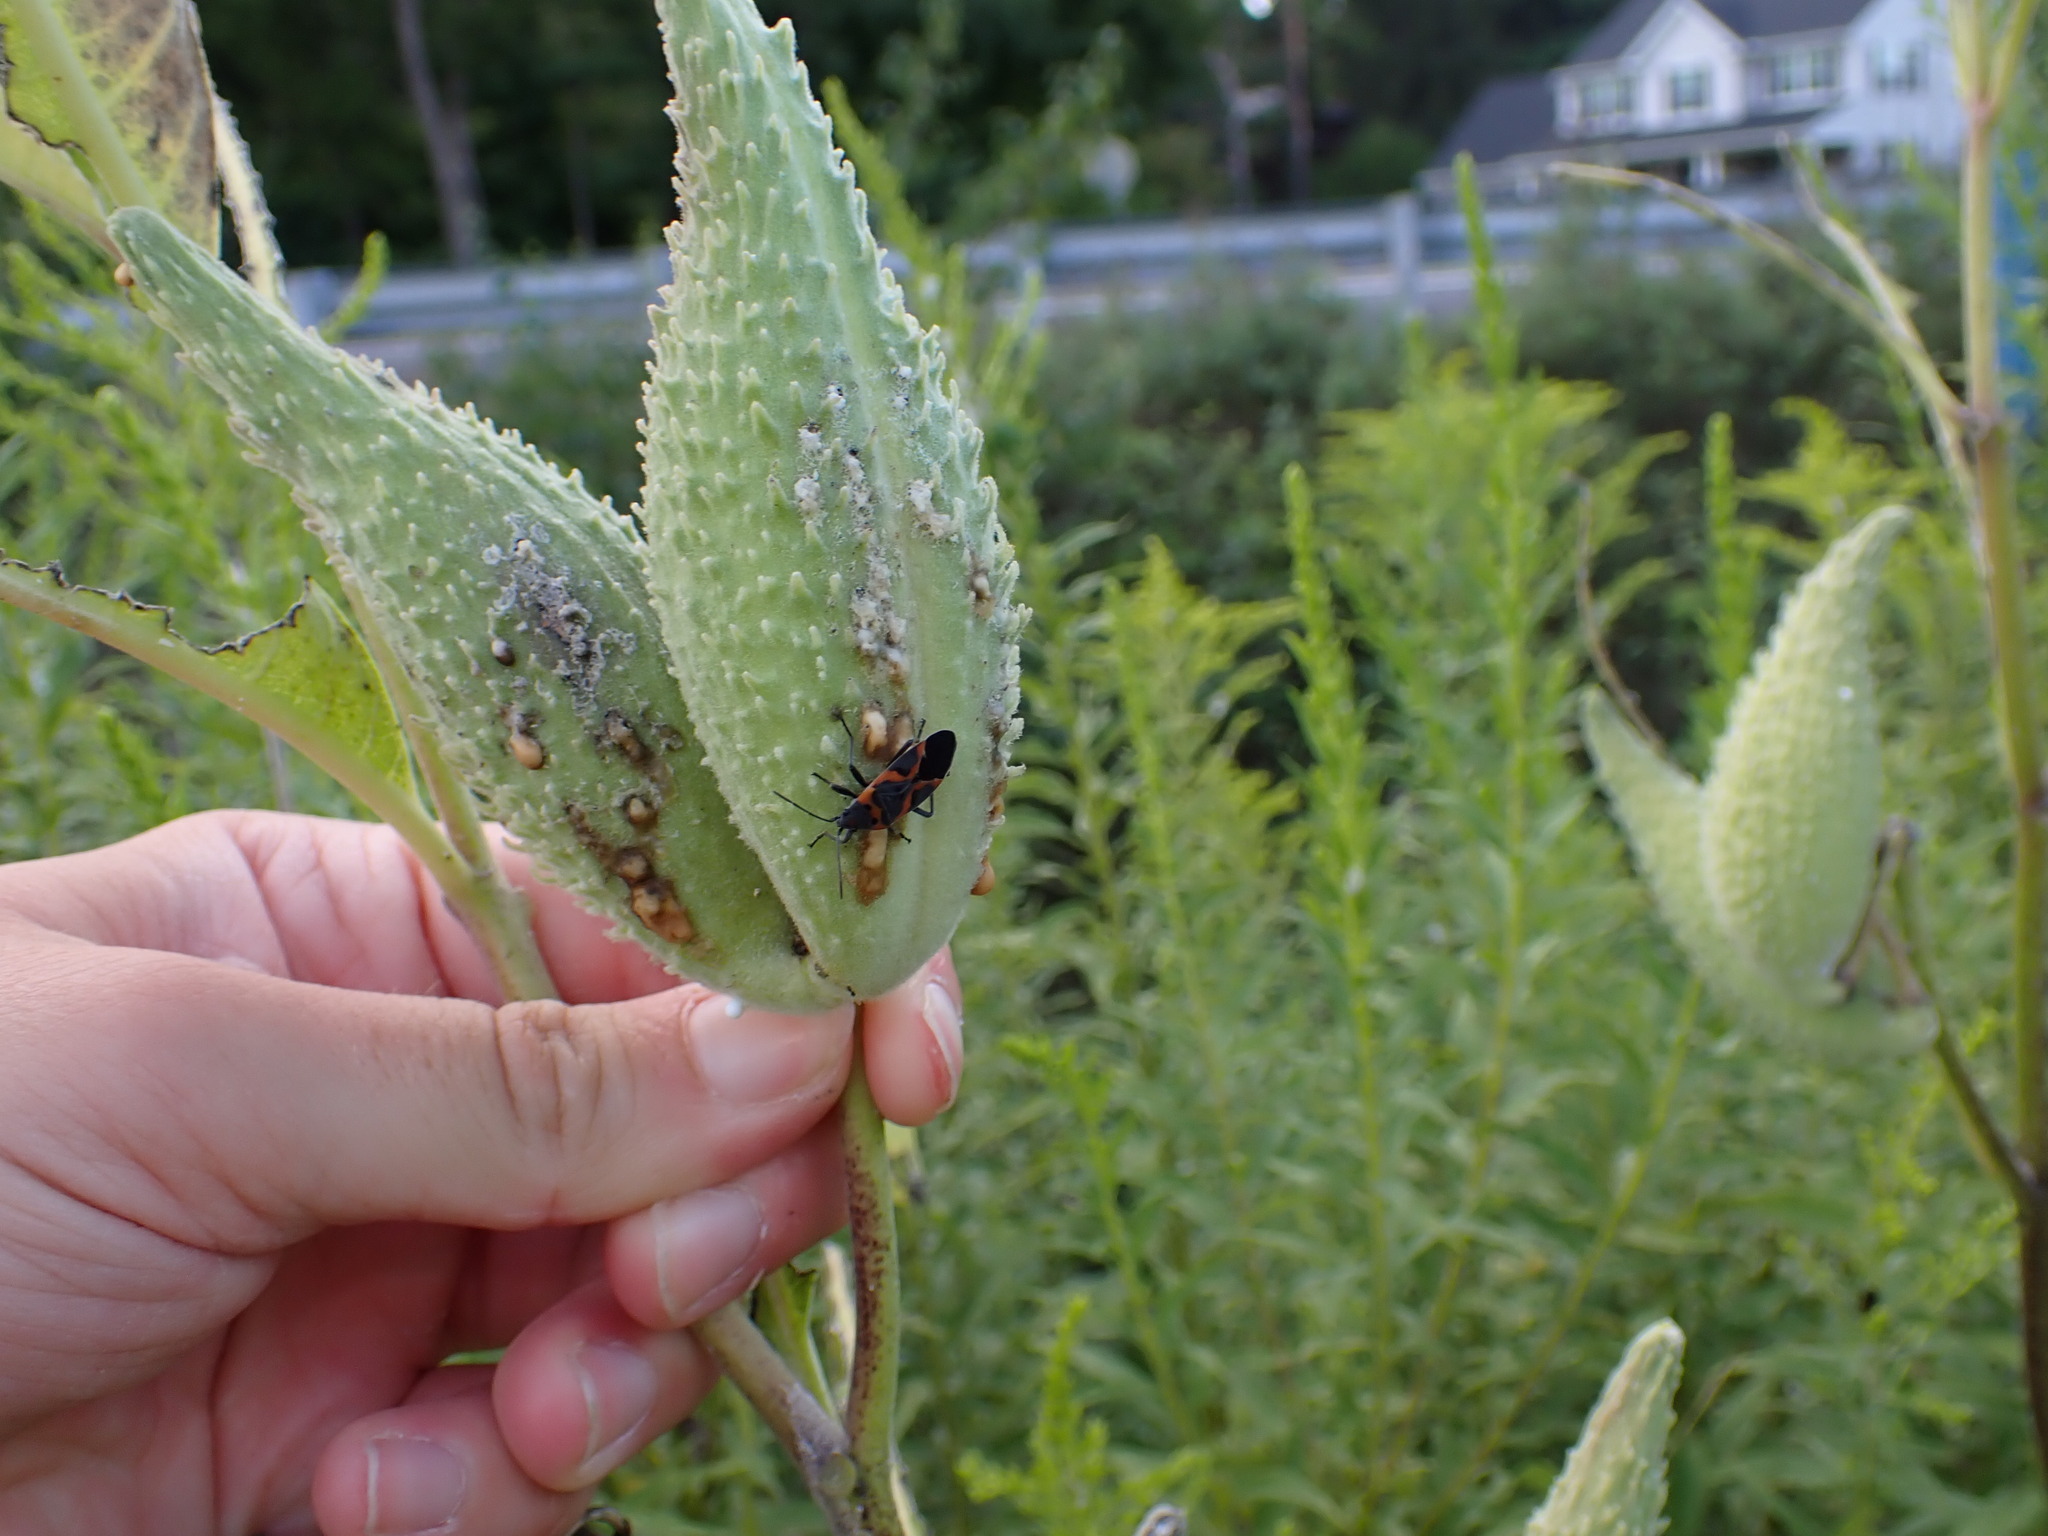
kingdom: Plantae
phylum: Tracheophyta
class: Magnoliopsida
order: Gentianales
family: Apocynaceae
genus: Asclepias
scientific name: Asclepias syriaca
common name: Common milkweed
